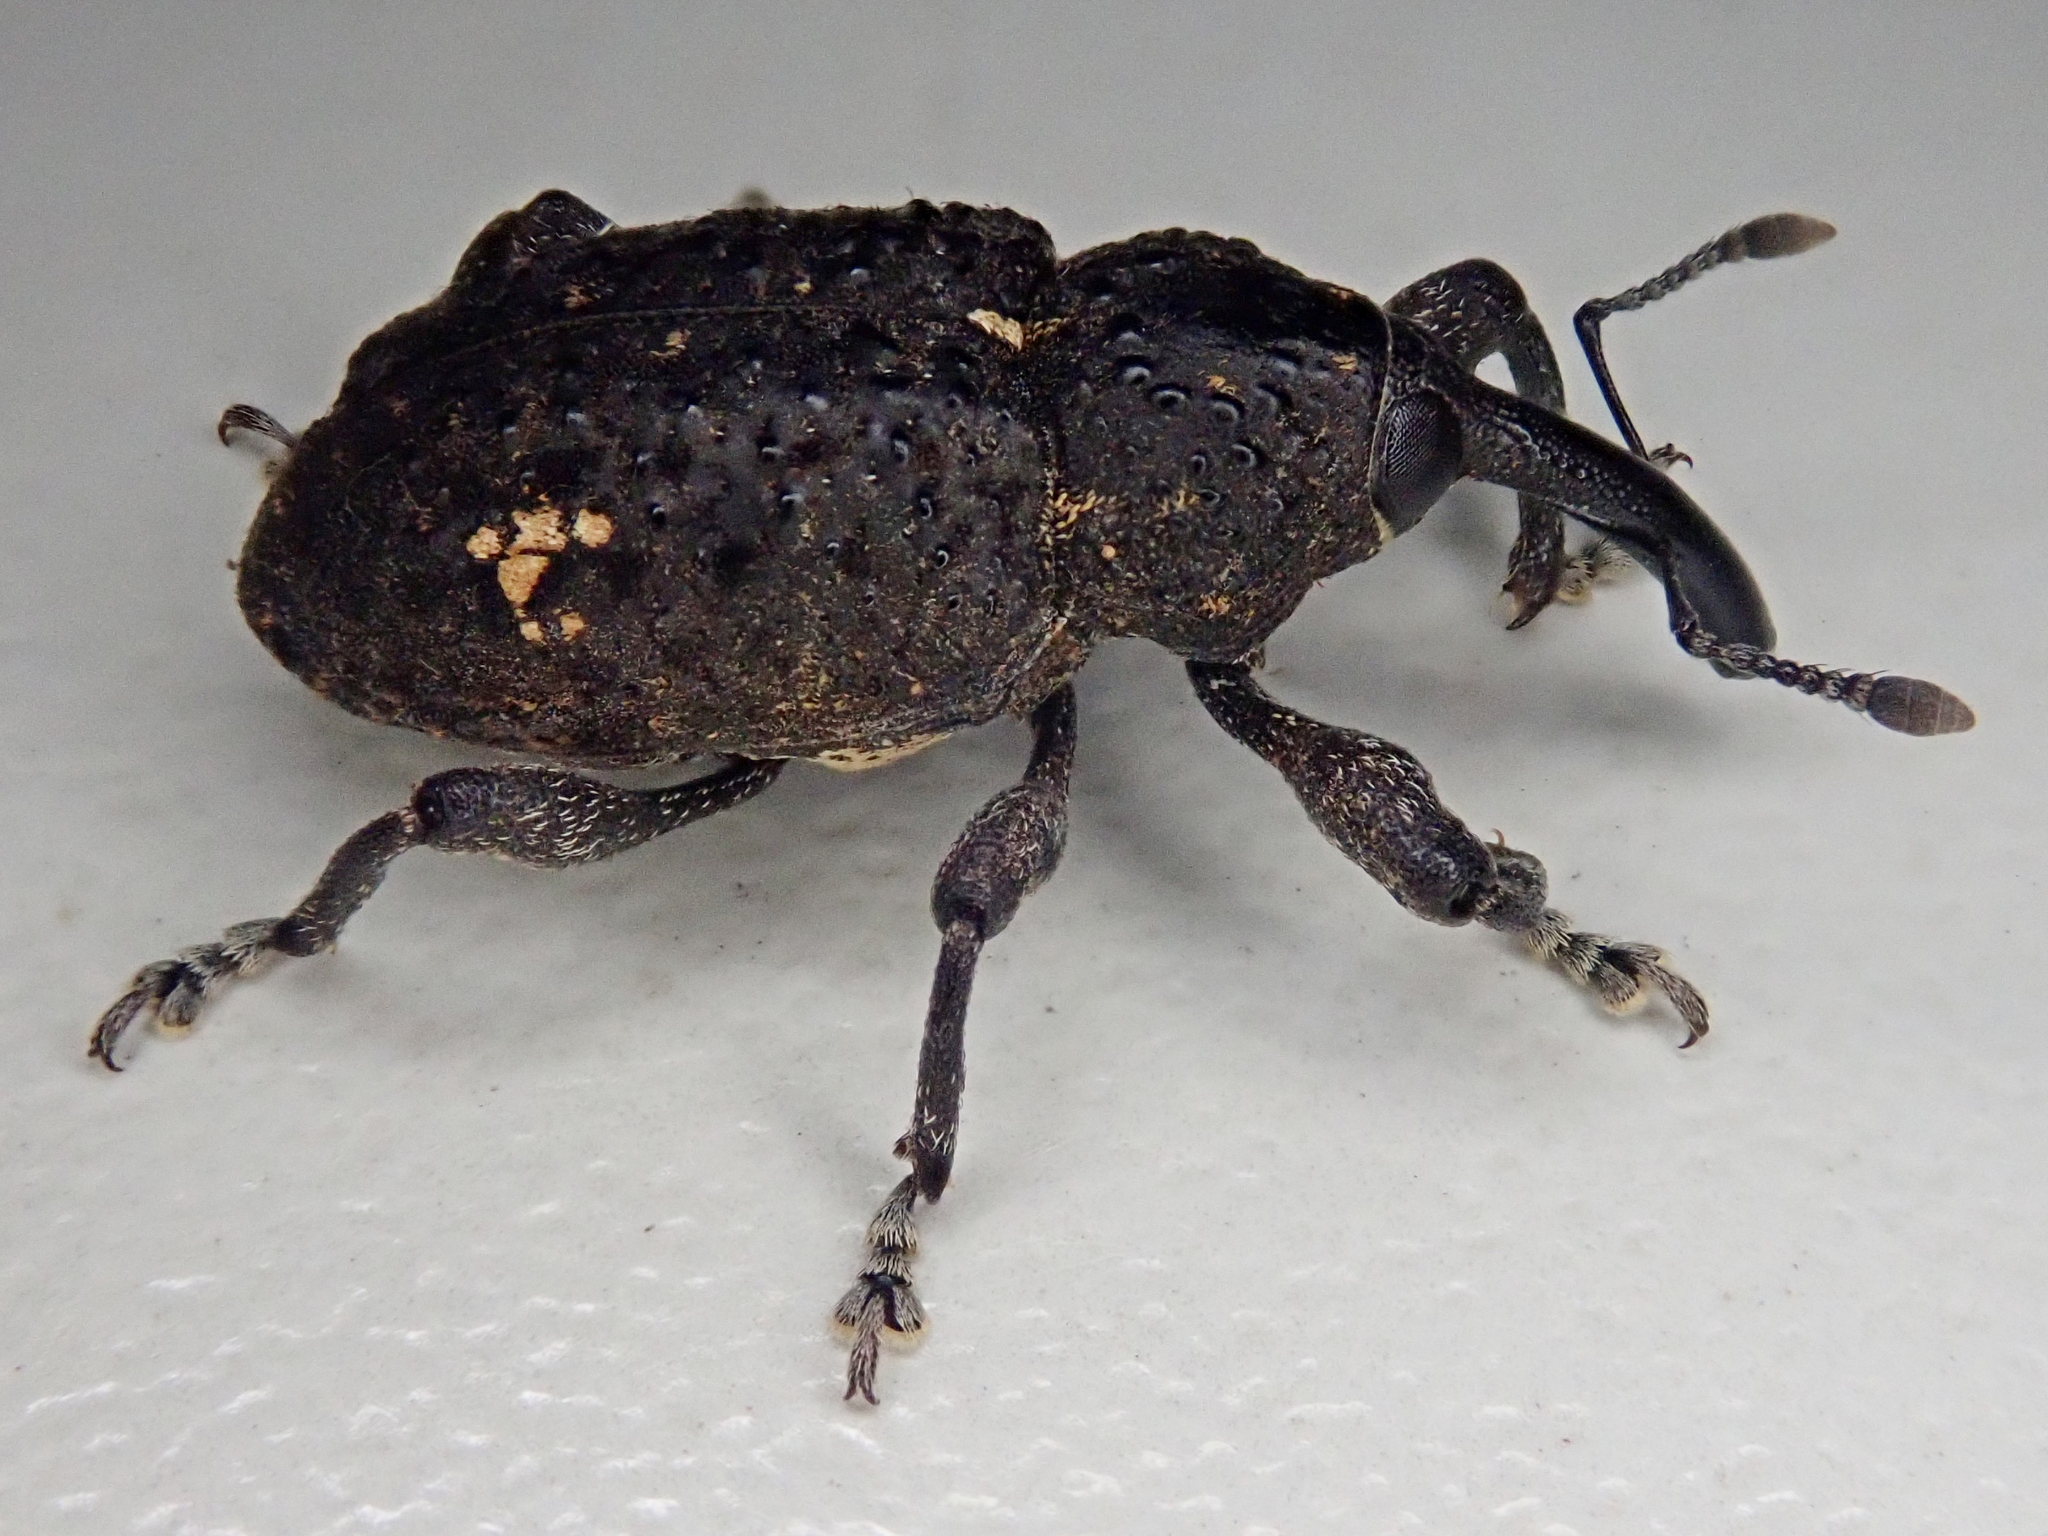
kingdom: Animalia
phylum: Arthropoda
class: Insecta
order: Coleoptera
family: Curculionidae
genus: Heilipus
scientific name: Heilipus tuberculosus
